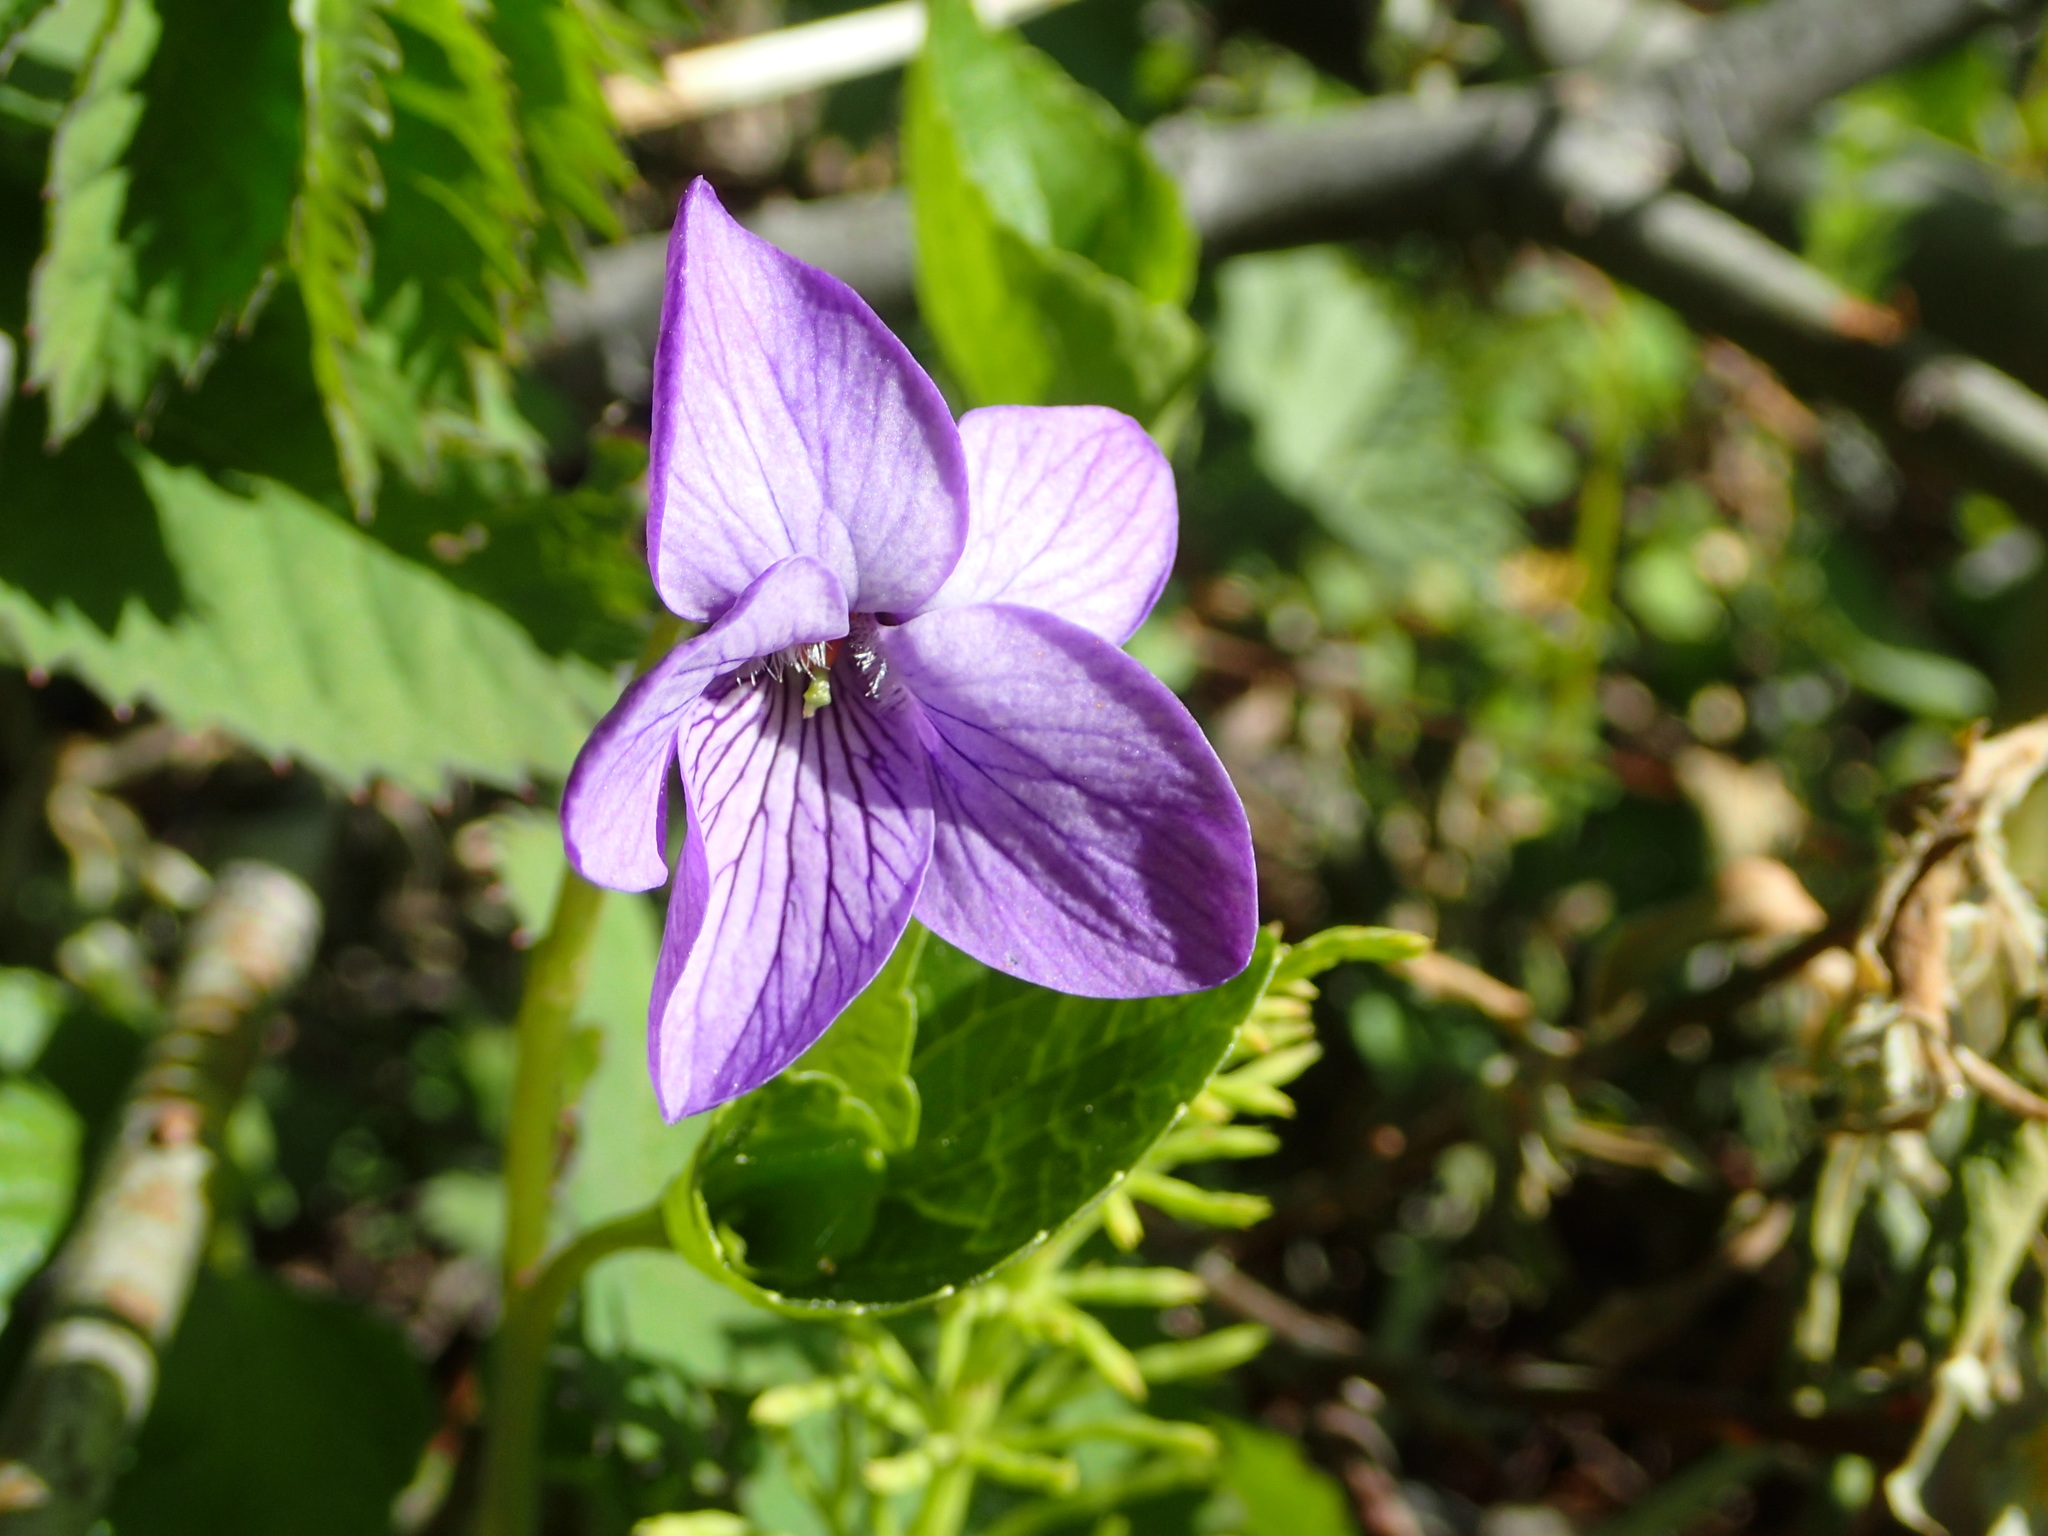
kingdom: Plantae
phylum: Tracheophyta
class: Magnoliopsida
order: Malpighiales
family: Violaceae
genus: Viola
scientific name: Viola langsdorffii
